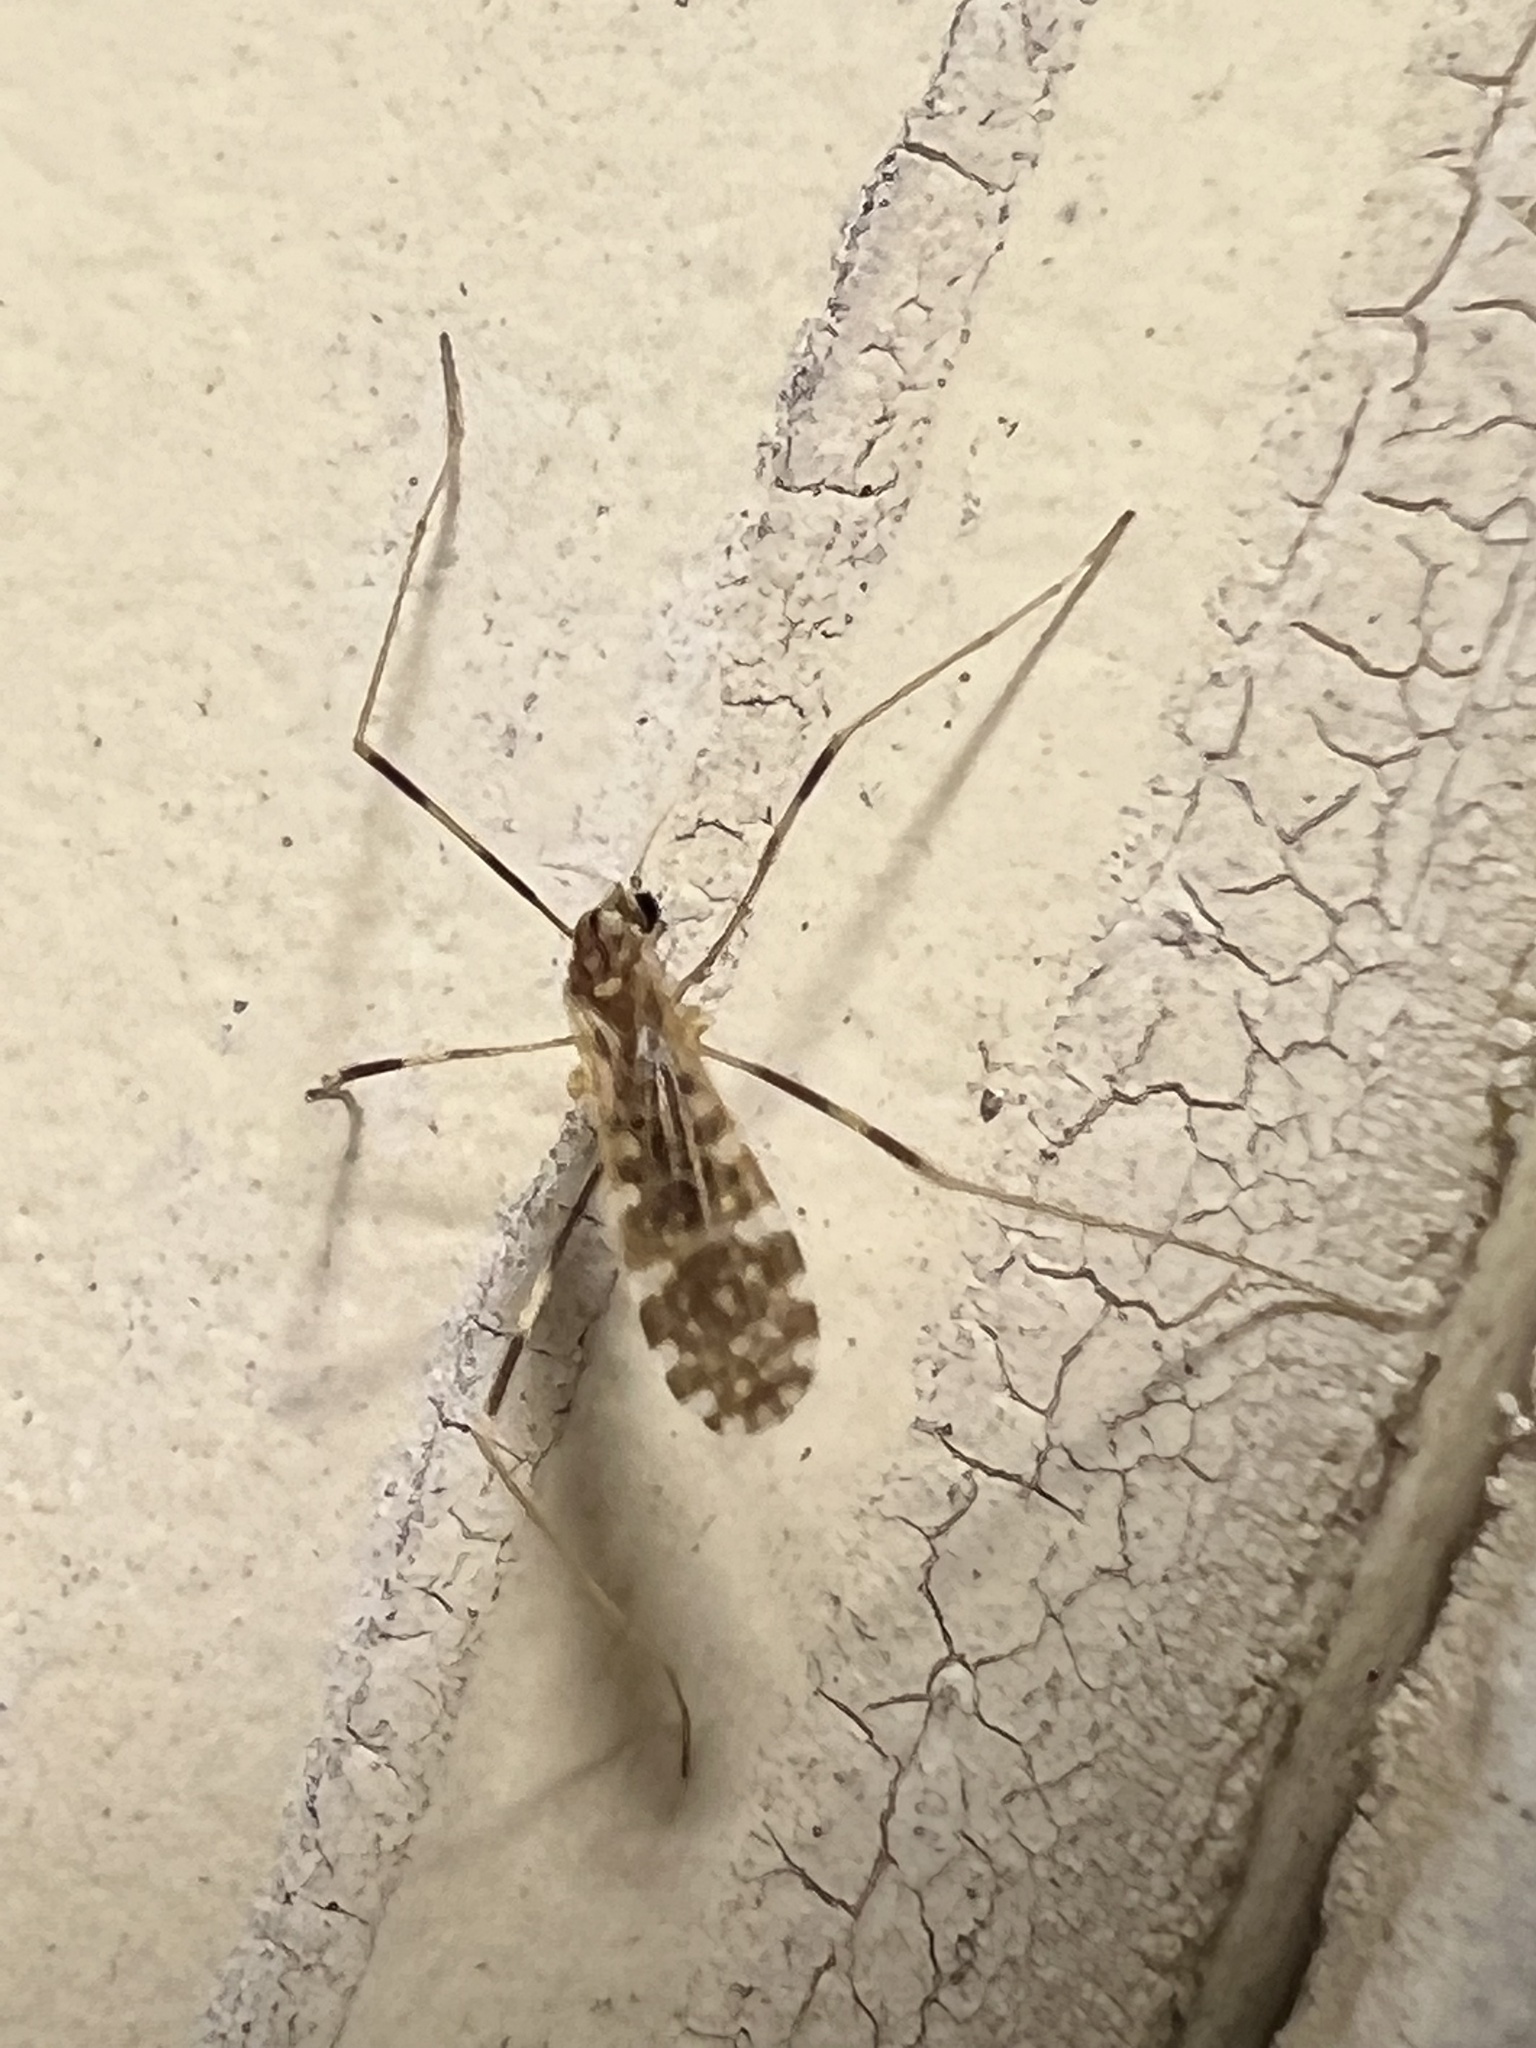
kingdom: Animalia
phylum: Arthropoda
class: Insecta
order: Diptera
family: Limoniidae
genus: Erioptera
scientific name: Erioptera caliptera
